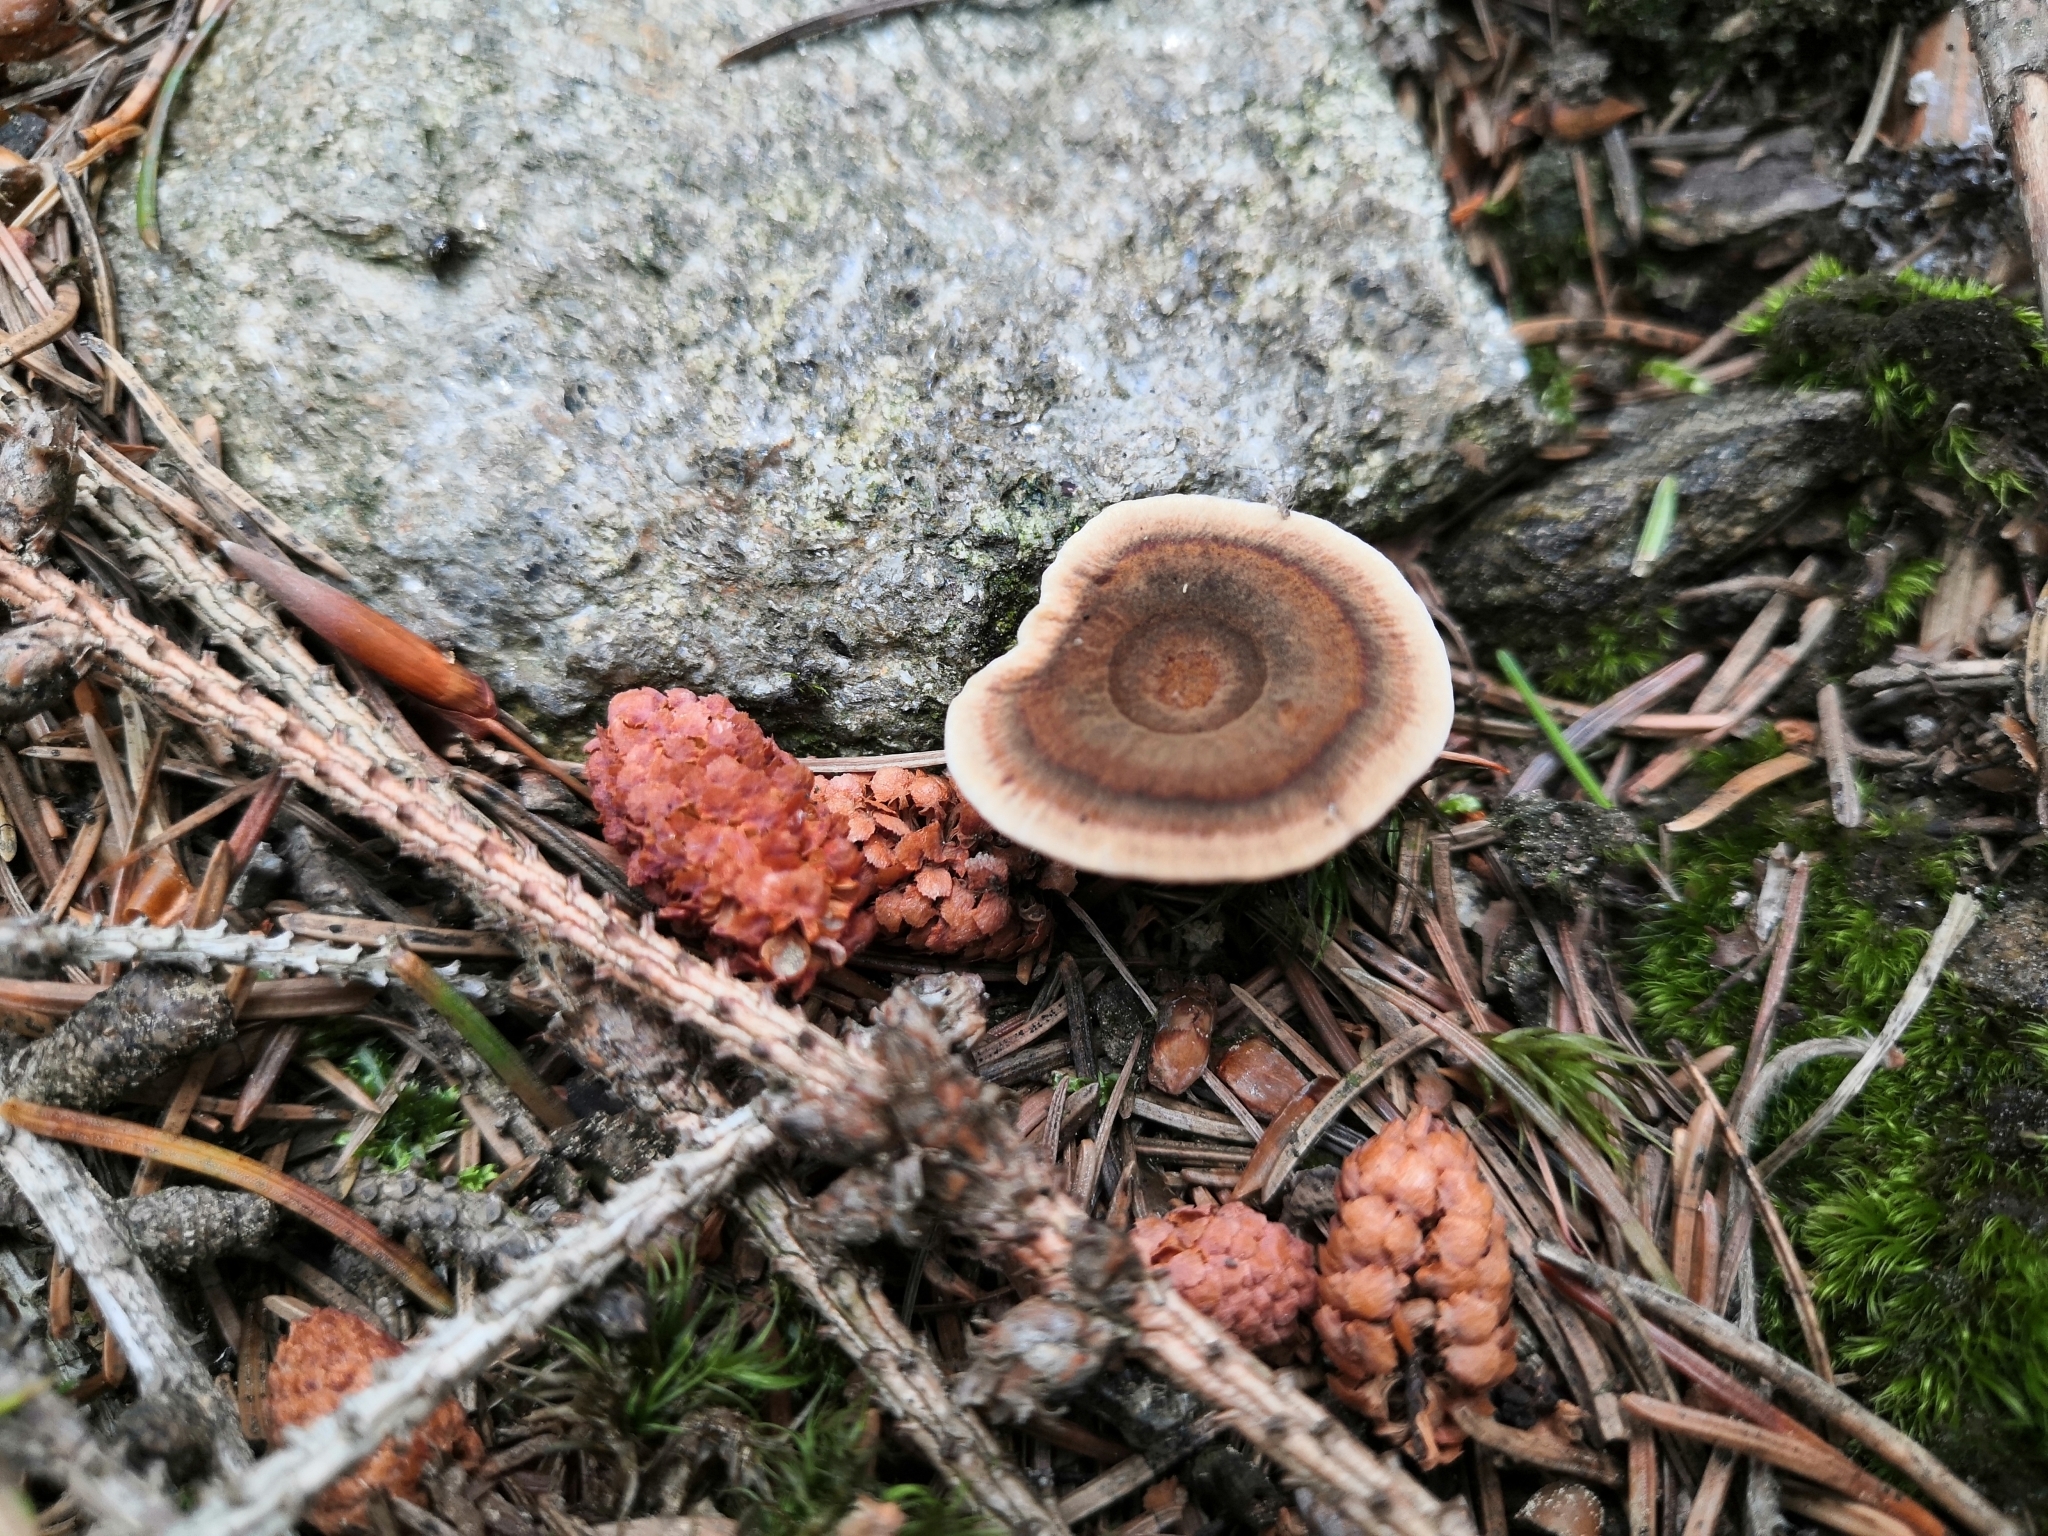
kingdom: Fungi
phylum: Basidiomycota
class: Agaricomycetes
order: Hymenochaetales
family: Hymenochaetaceae
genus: Coltricia
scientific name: Coltricia perennis
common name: Tiger's eye
